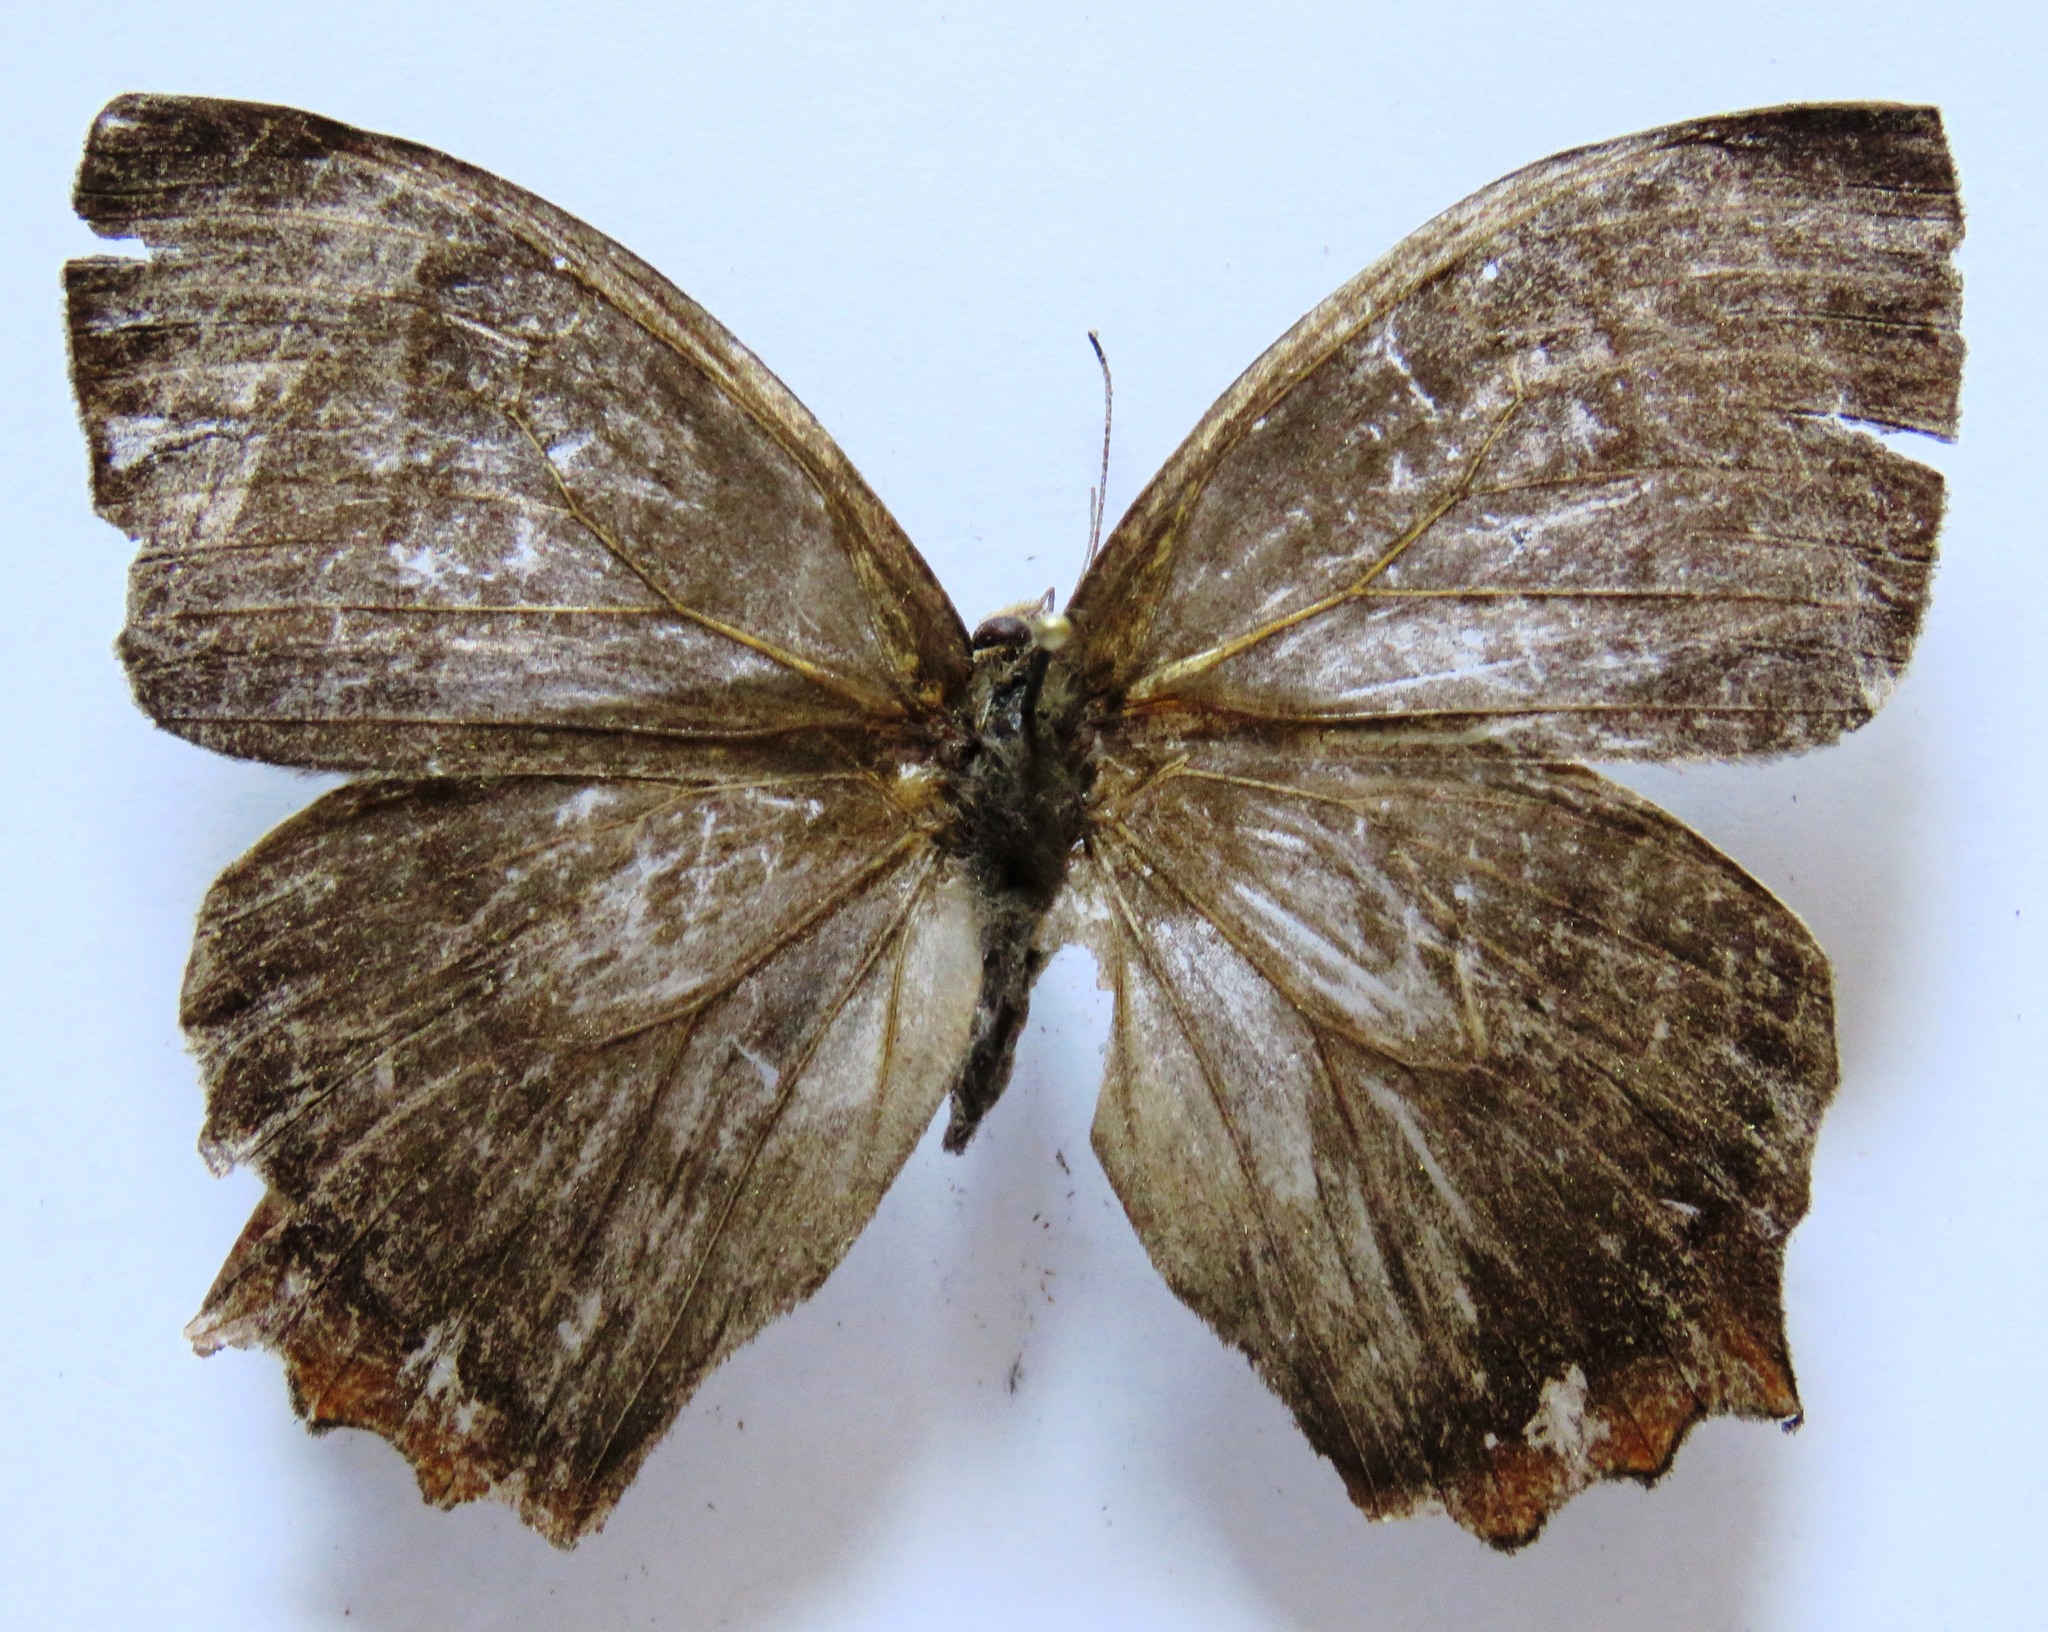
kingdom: Animalia
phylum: Arthropoda
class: Insecta
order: Lepidoptera
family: Nymphalidae
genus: Taygetis
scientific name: Taygetis virgilia
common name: Stub-tailed satyr
